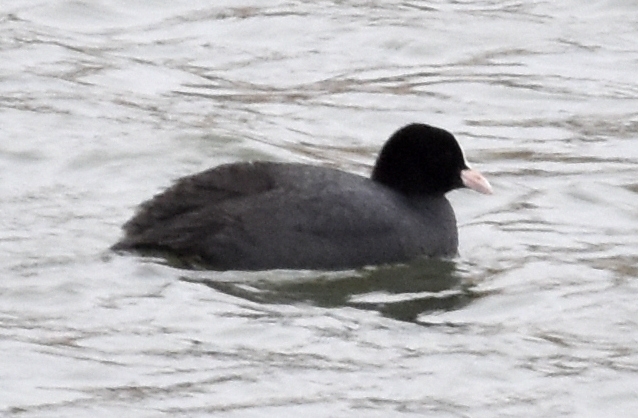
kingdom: Animalia
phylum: Chordata
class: Aves
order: Gruiformes
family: Rallidae
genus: Fulica
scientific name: Fulica atra
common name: Eurasian coot
